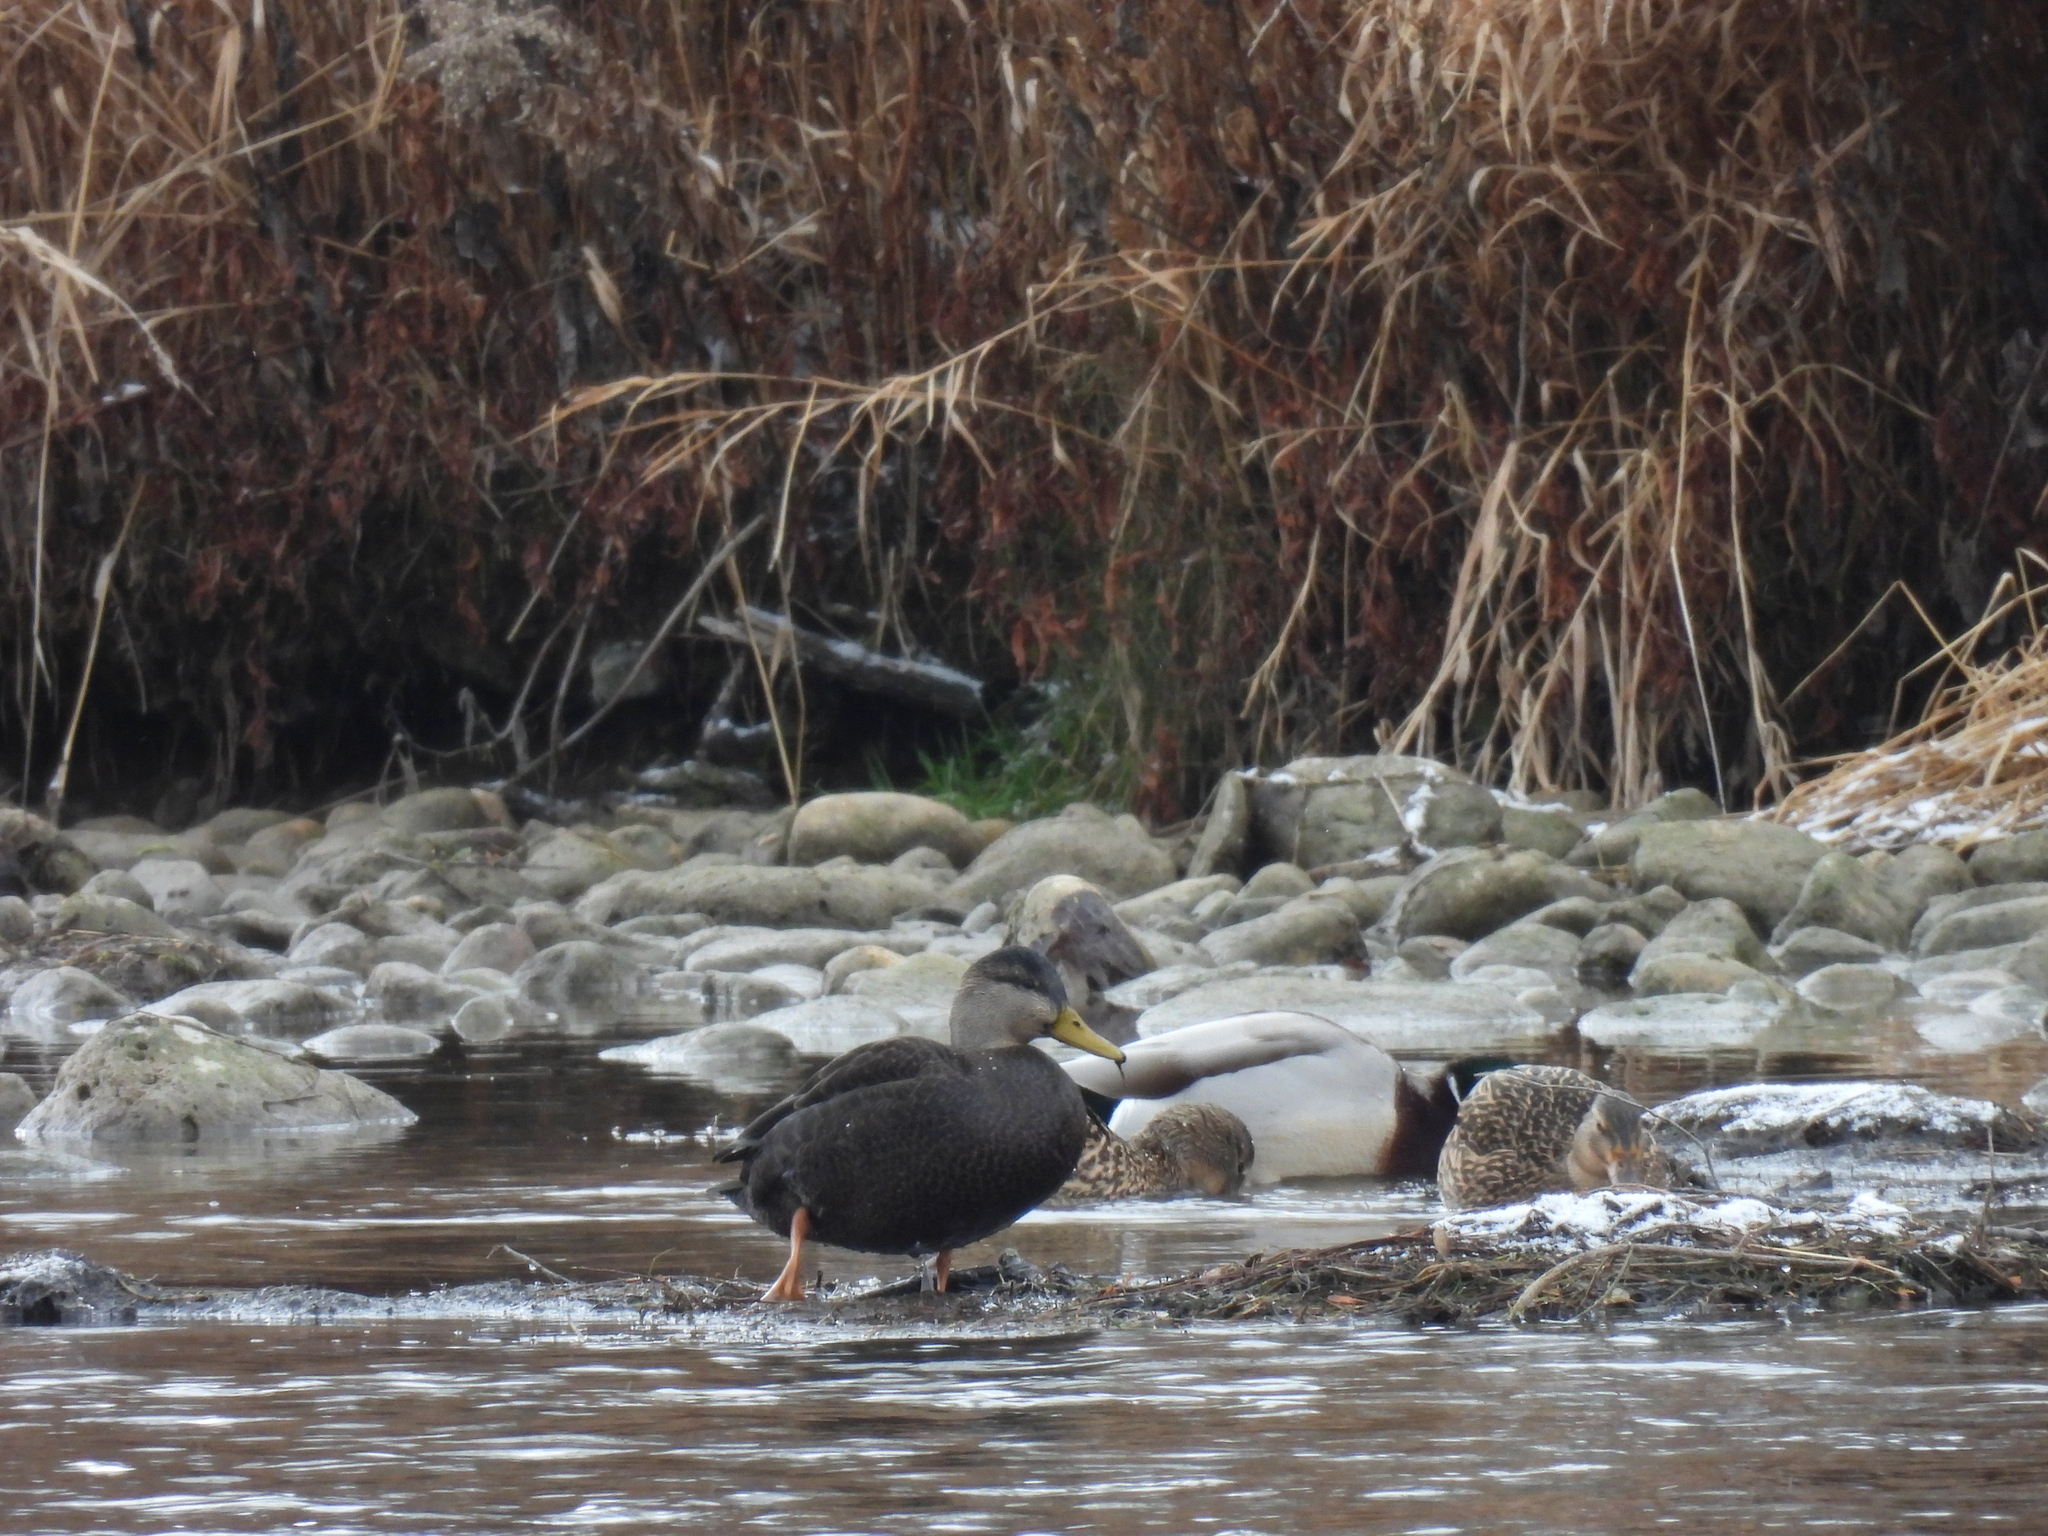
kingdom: Animalia
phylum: Chordata
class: Aves
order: Anseriformes
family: Anatidae
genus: Anas
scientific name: Anas rubripes
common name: American black duck
